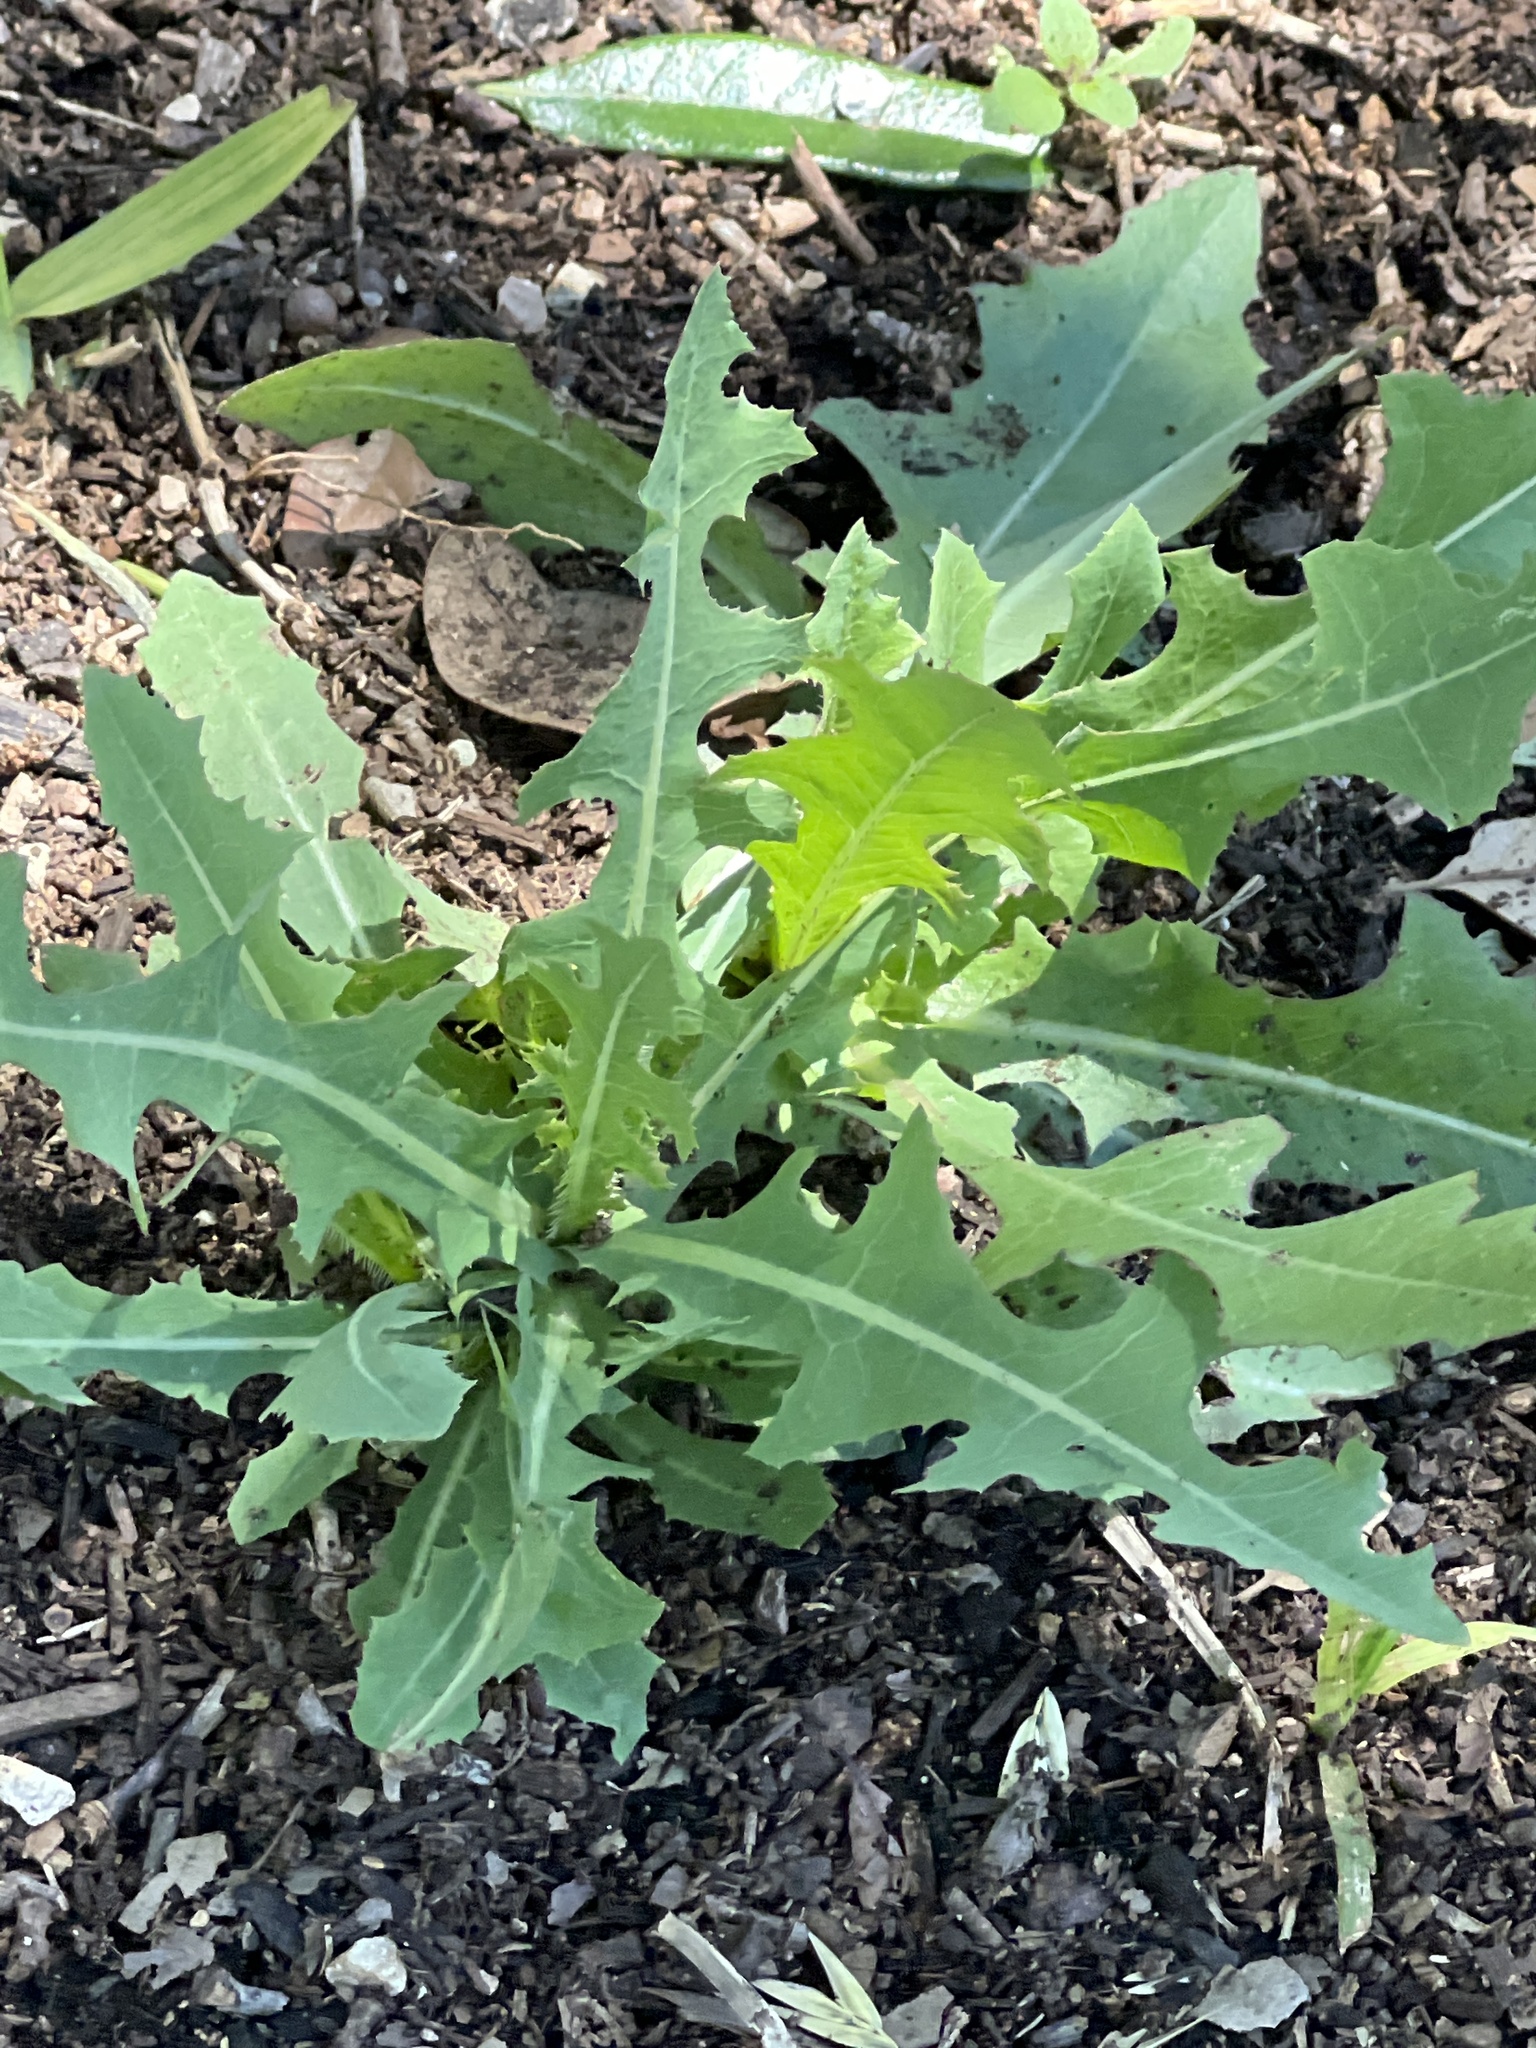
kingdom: Plantae
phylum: Tracheophyta
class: Magnoliopsida
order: Asterales
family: Asteraceae
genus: Lactuca
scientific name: Lactuca serriola
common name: Prickly lettuce
